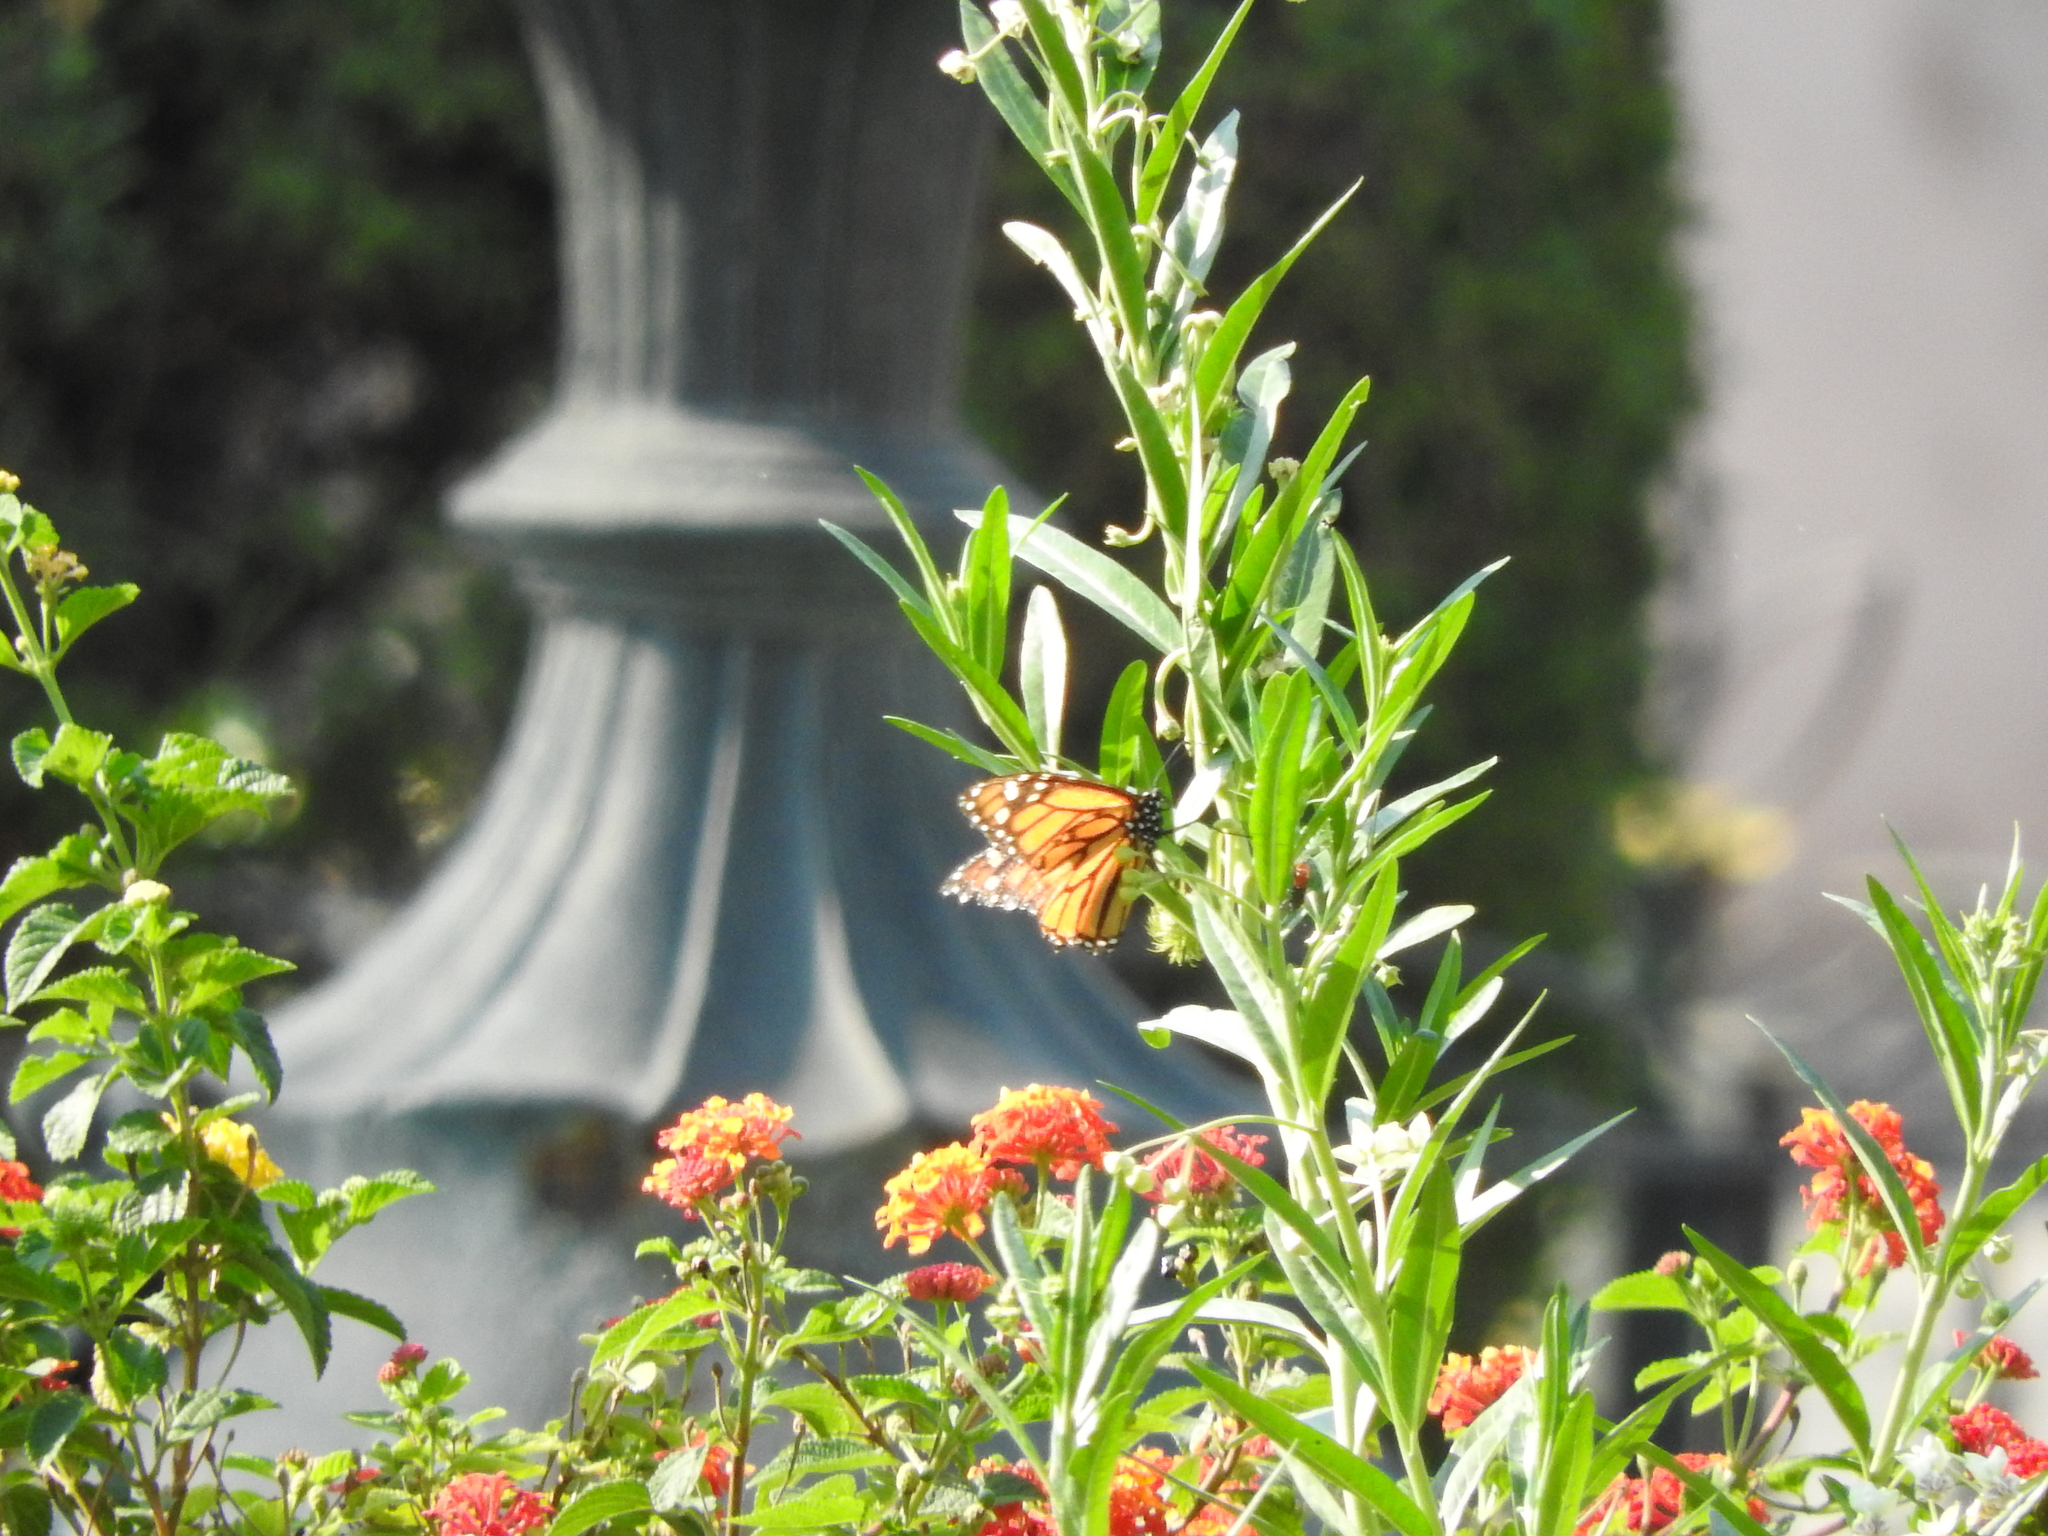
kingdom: Animalia
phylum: Arthropoda
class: Insecta
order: Lepidoptera
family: Nymphalidae
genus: Danaus
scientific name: Danaus plexippus
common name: Monarch
